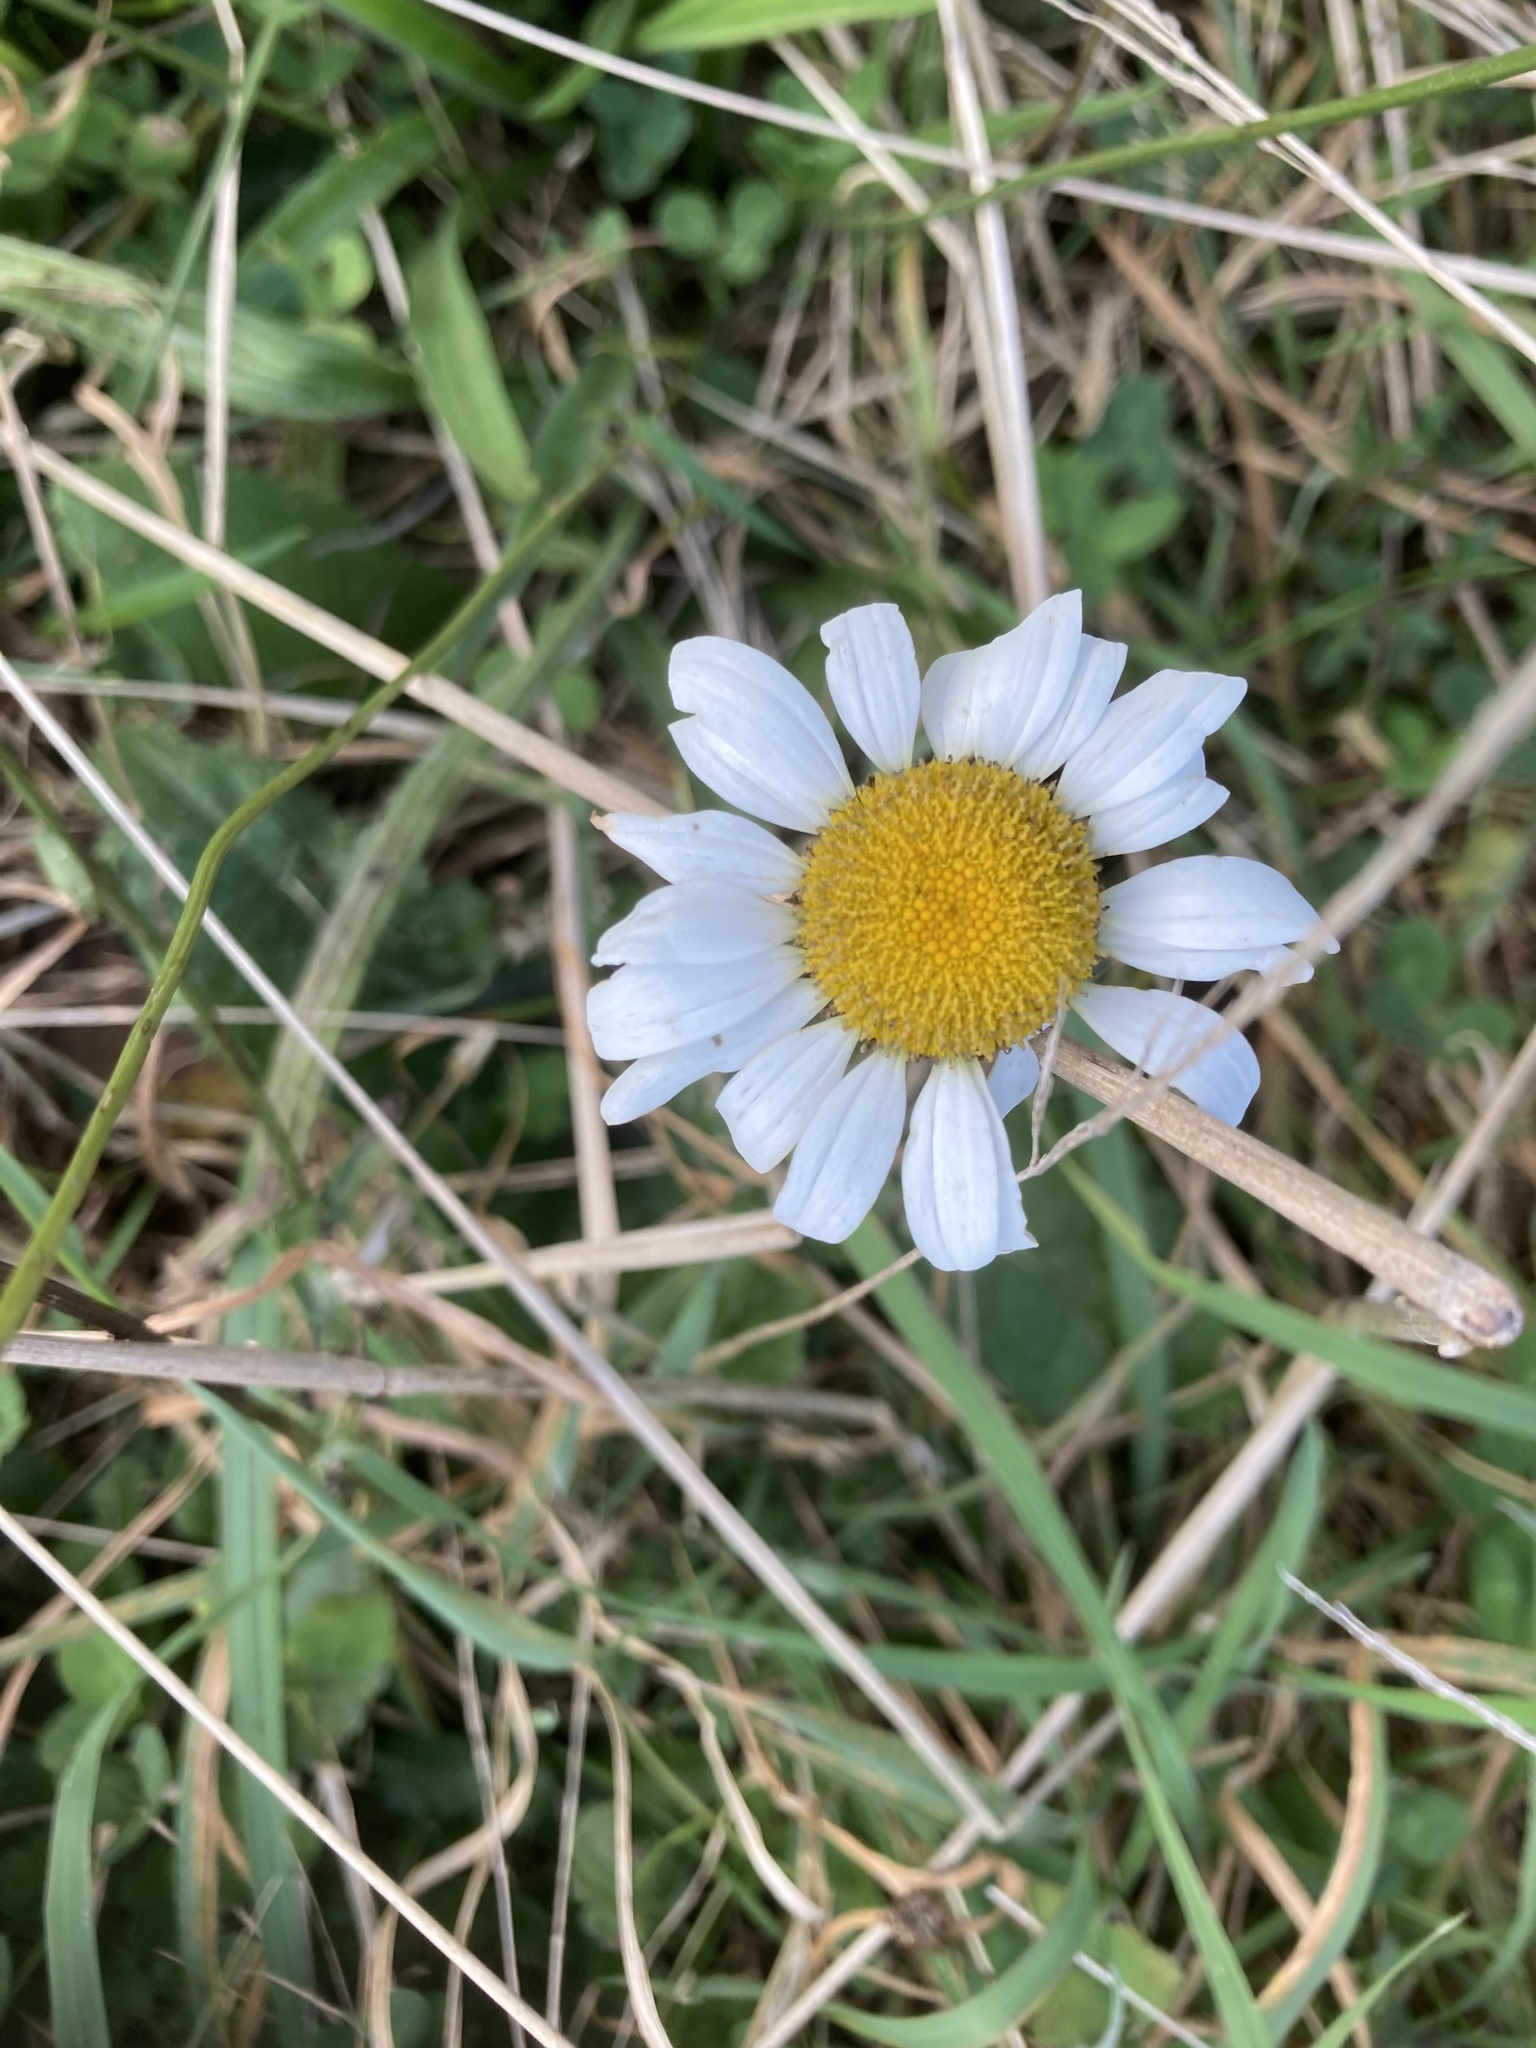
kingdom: Plantae
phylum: Tracheophyta
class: Magnoliopsida
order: Asterales
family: Asteraceae
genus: Leucanthemum
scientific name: Leucanthemum vulgare
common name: Oxeye daisy
